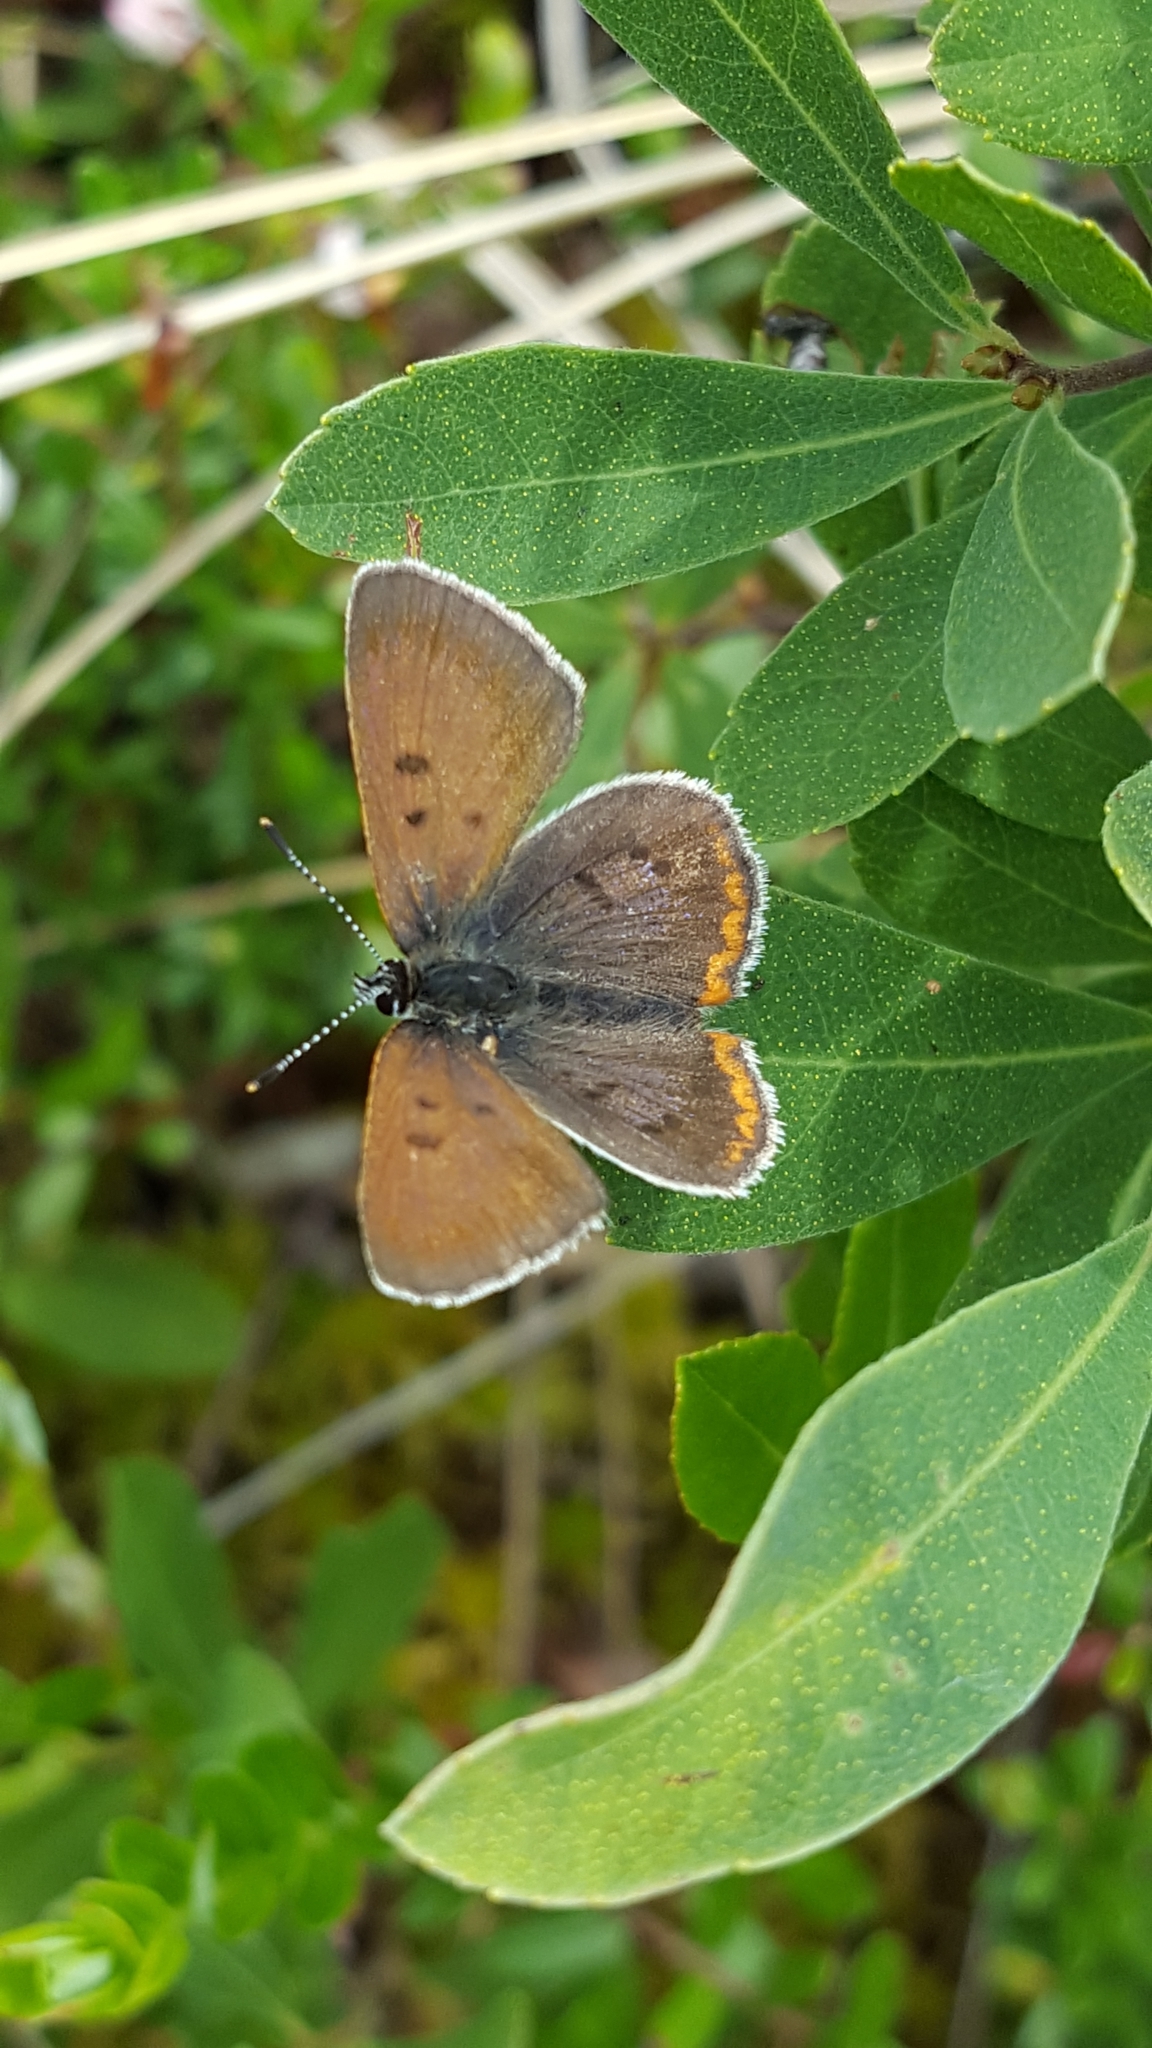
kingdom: Animalia
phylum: Arthropoda
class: Insecta
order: Lepidoptera
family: Lycaenidae
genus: Tharsalea
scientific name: Tharsalea epixanthe
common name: Bog copper
